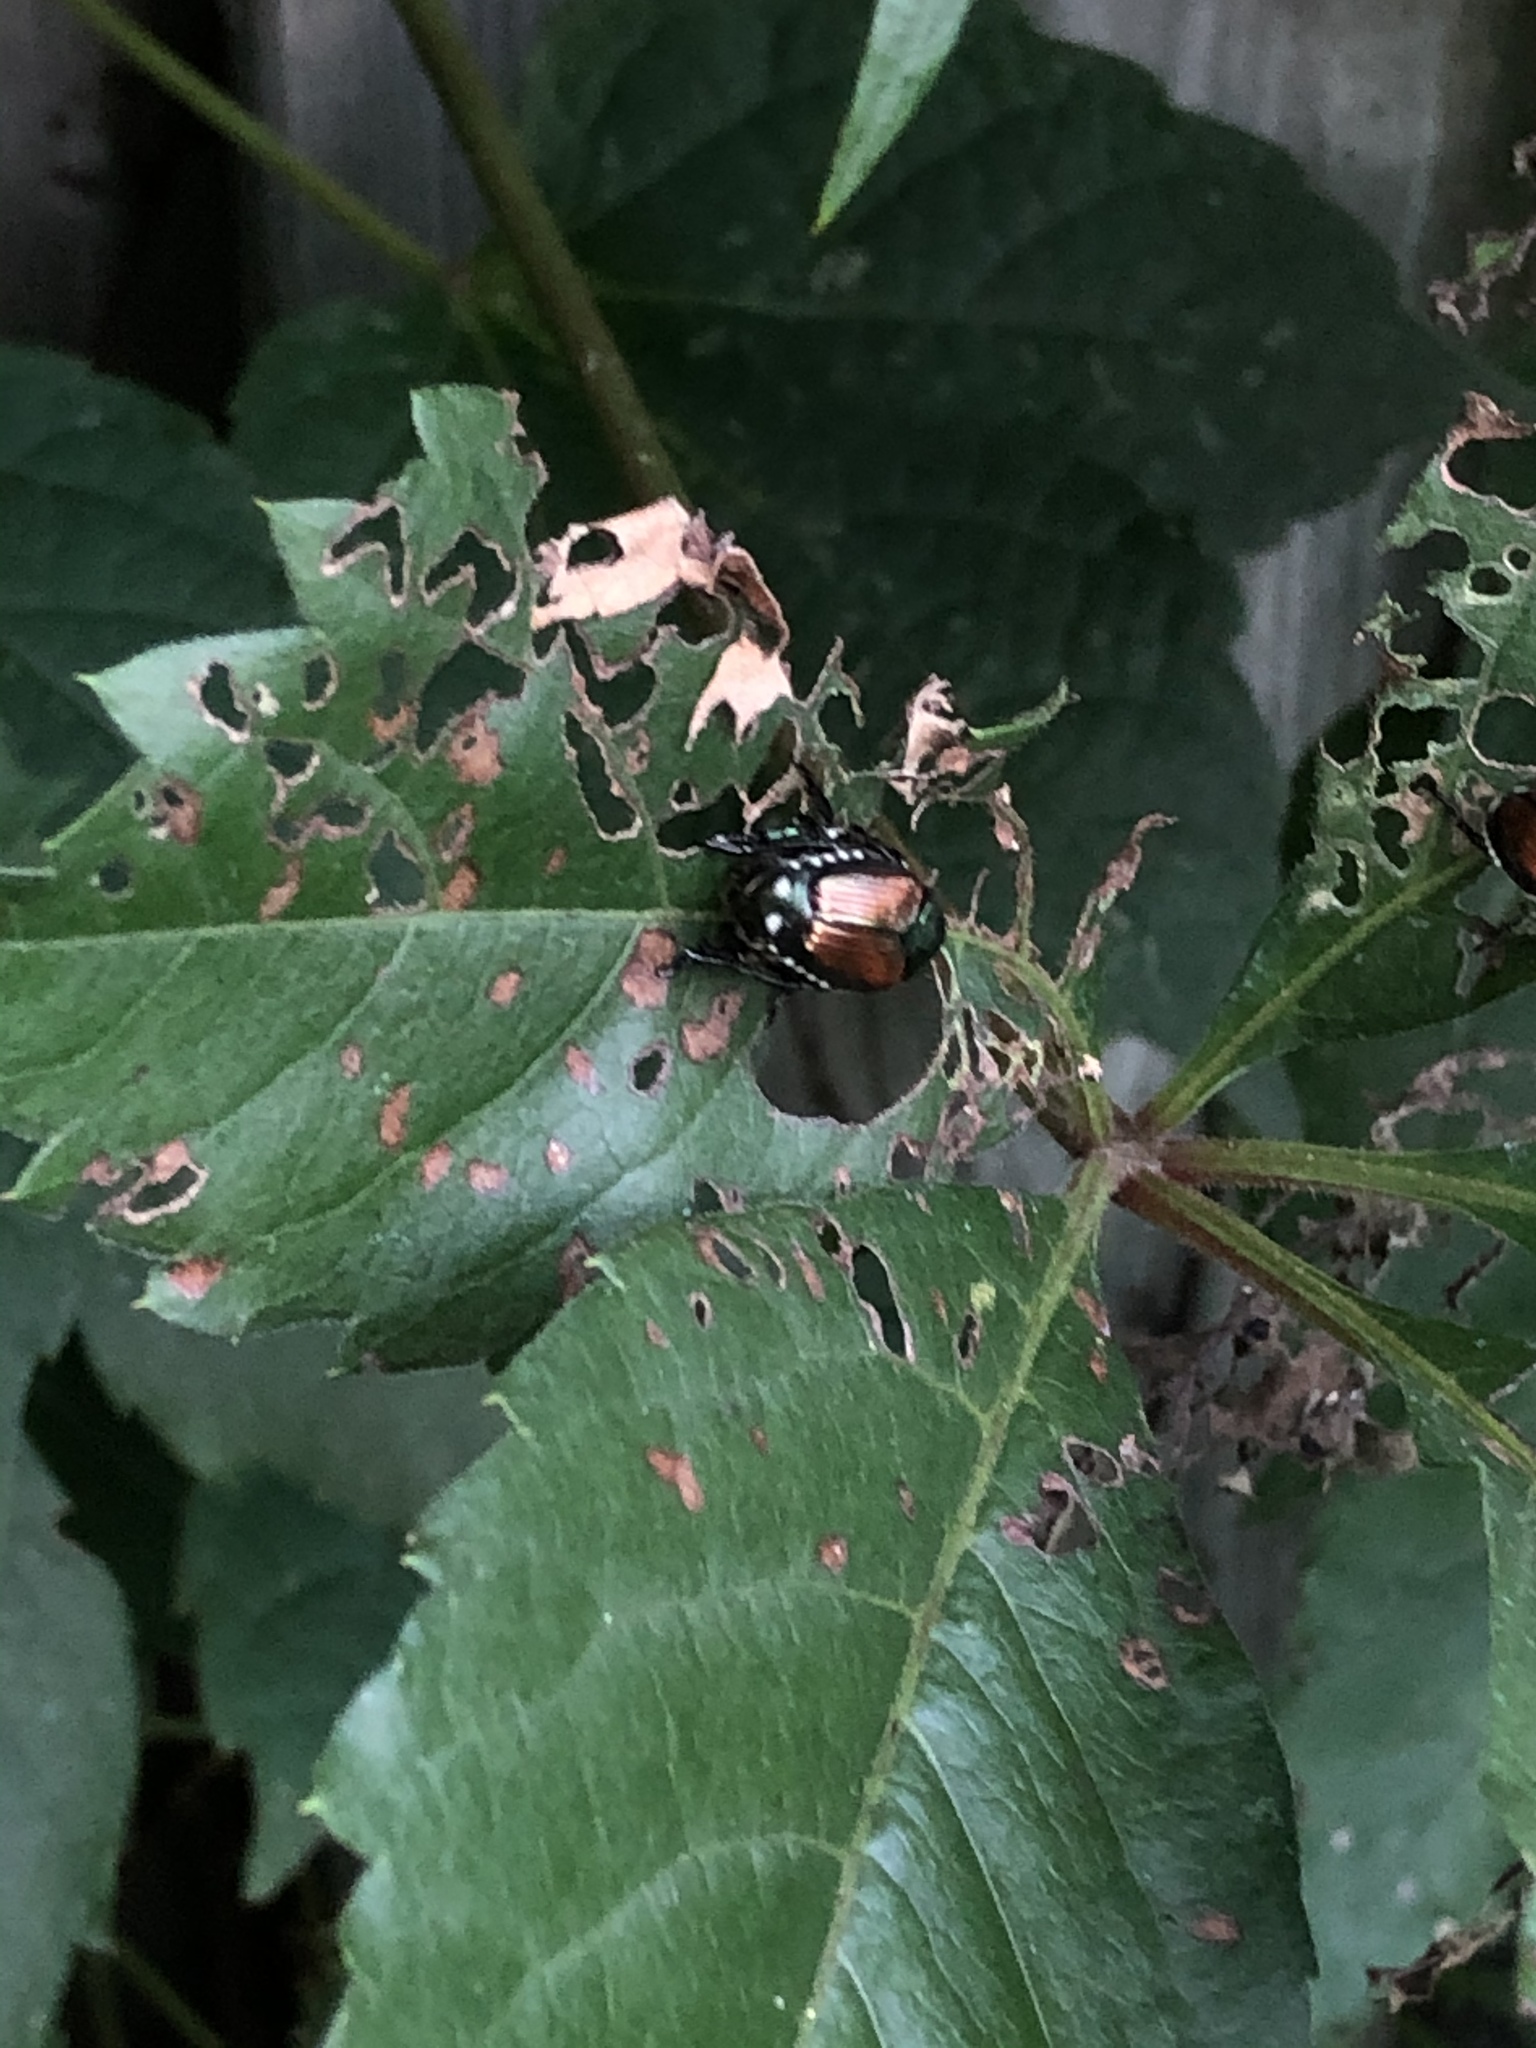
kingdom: Animalia
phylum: Arthropoda
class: Insecta
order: Coleoptera
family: Scarabaeidae
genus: Popillia
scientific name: Popillia japonica
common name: Japanese beetle
